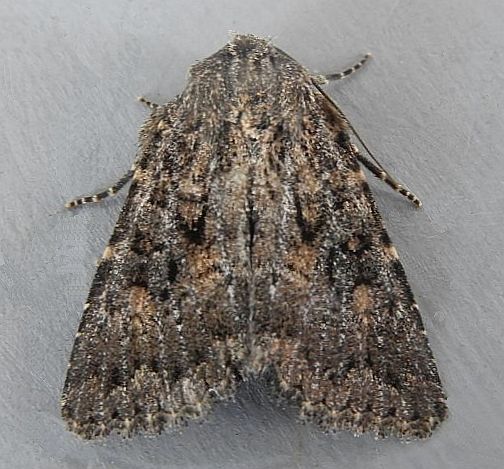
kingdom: Animalia
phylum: Arthropoda
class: Insecta
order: Lepidoptera
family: Noctuidae
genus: Aseptis
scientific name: Aseptis fumeola
